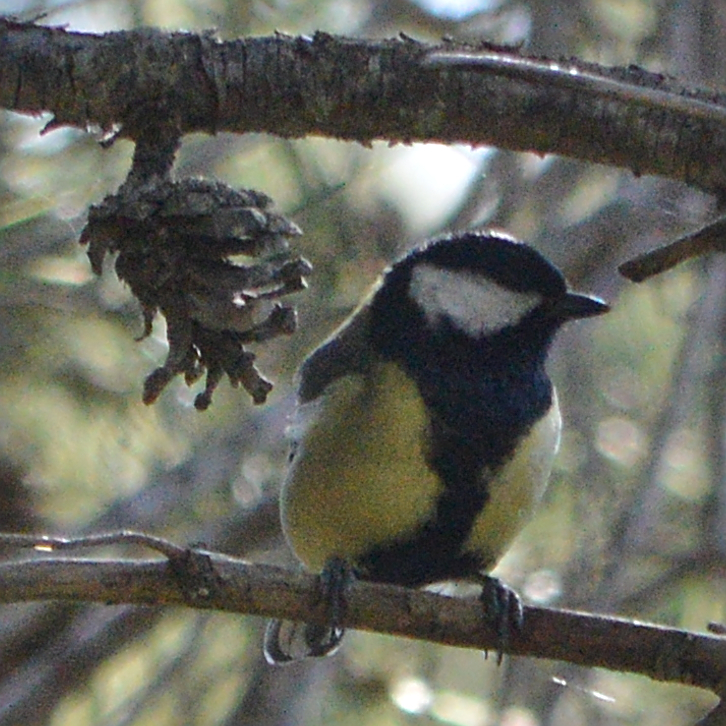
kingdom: Animalia
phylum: Chordata
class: Aves
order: Passeriformes
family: Paridae
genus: Parus
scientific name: Parus major
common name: Great tit
